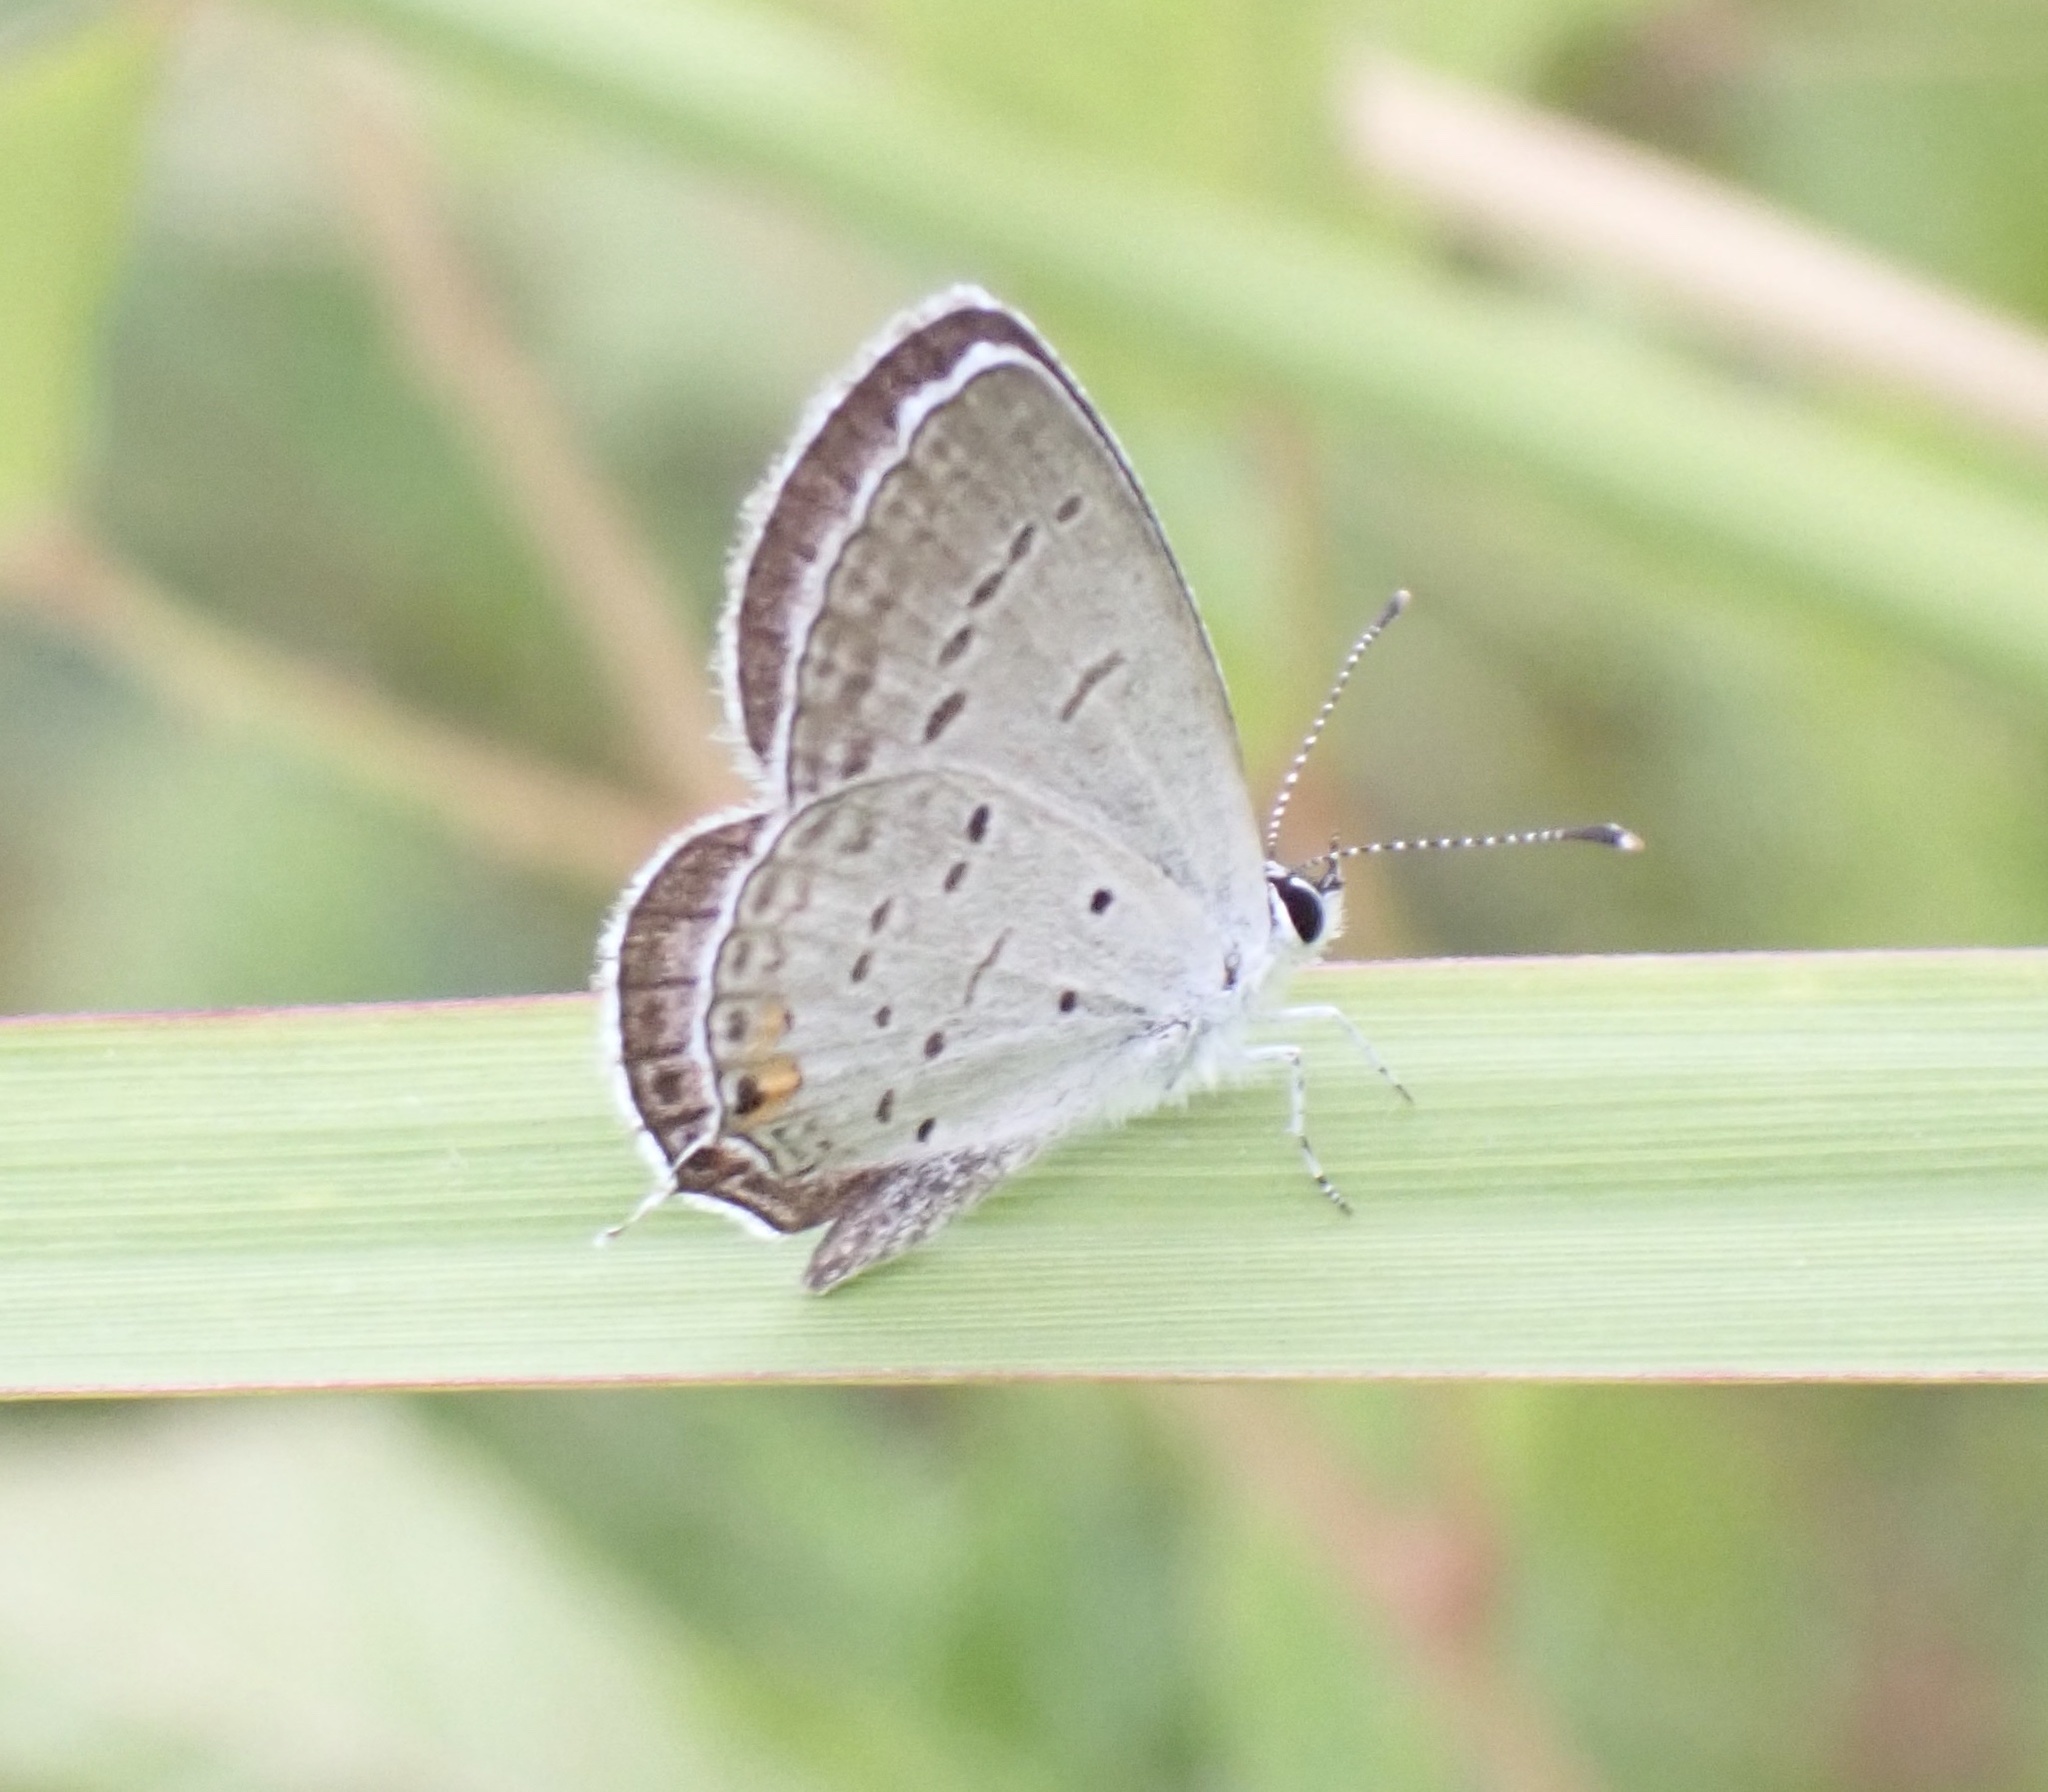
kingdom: Animalia
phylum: Arthropoda
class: Insecta
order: Lepidoptera
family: Lycaenidae
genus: Elkalyce
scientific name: Elkalyce comyntas
